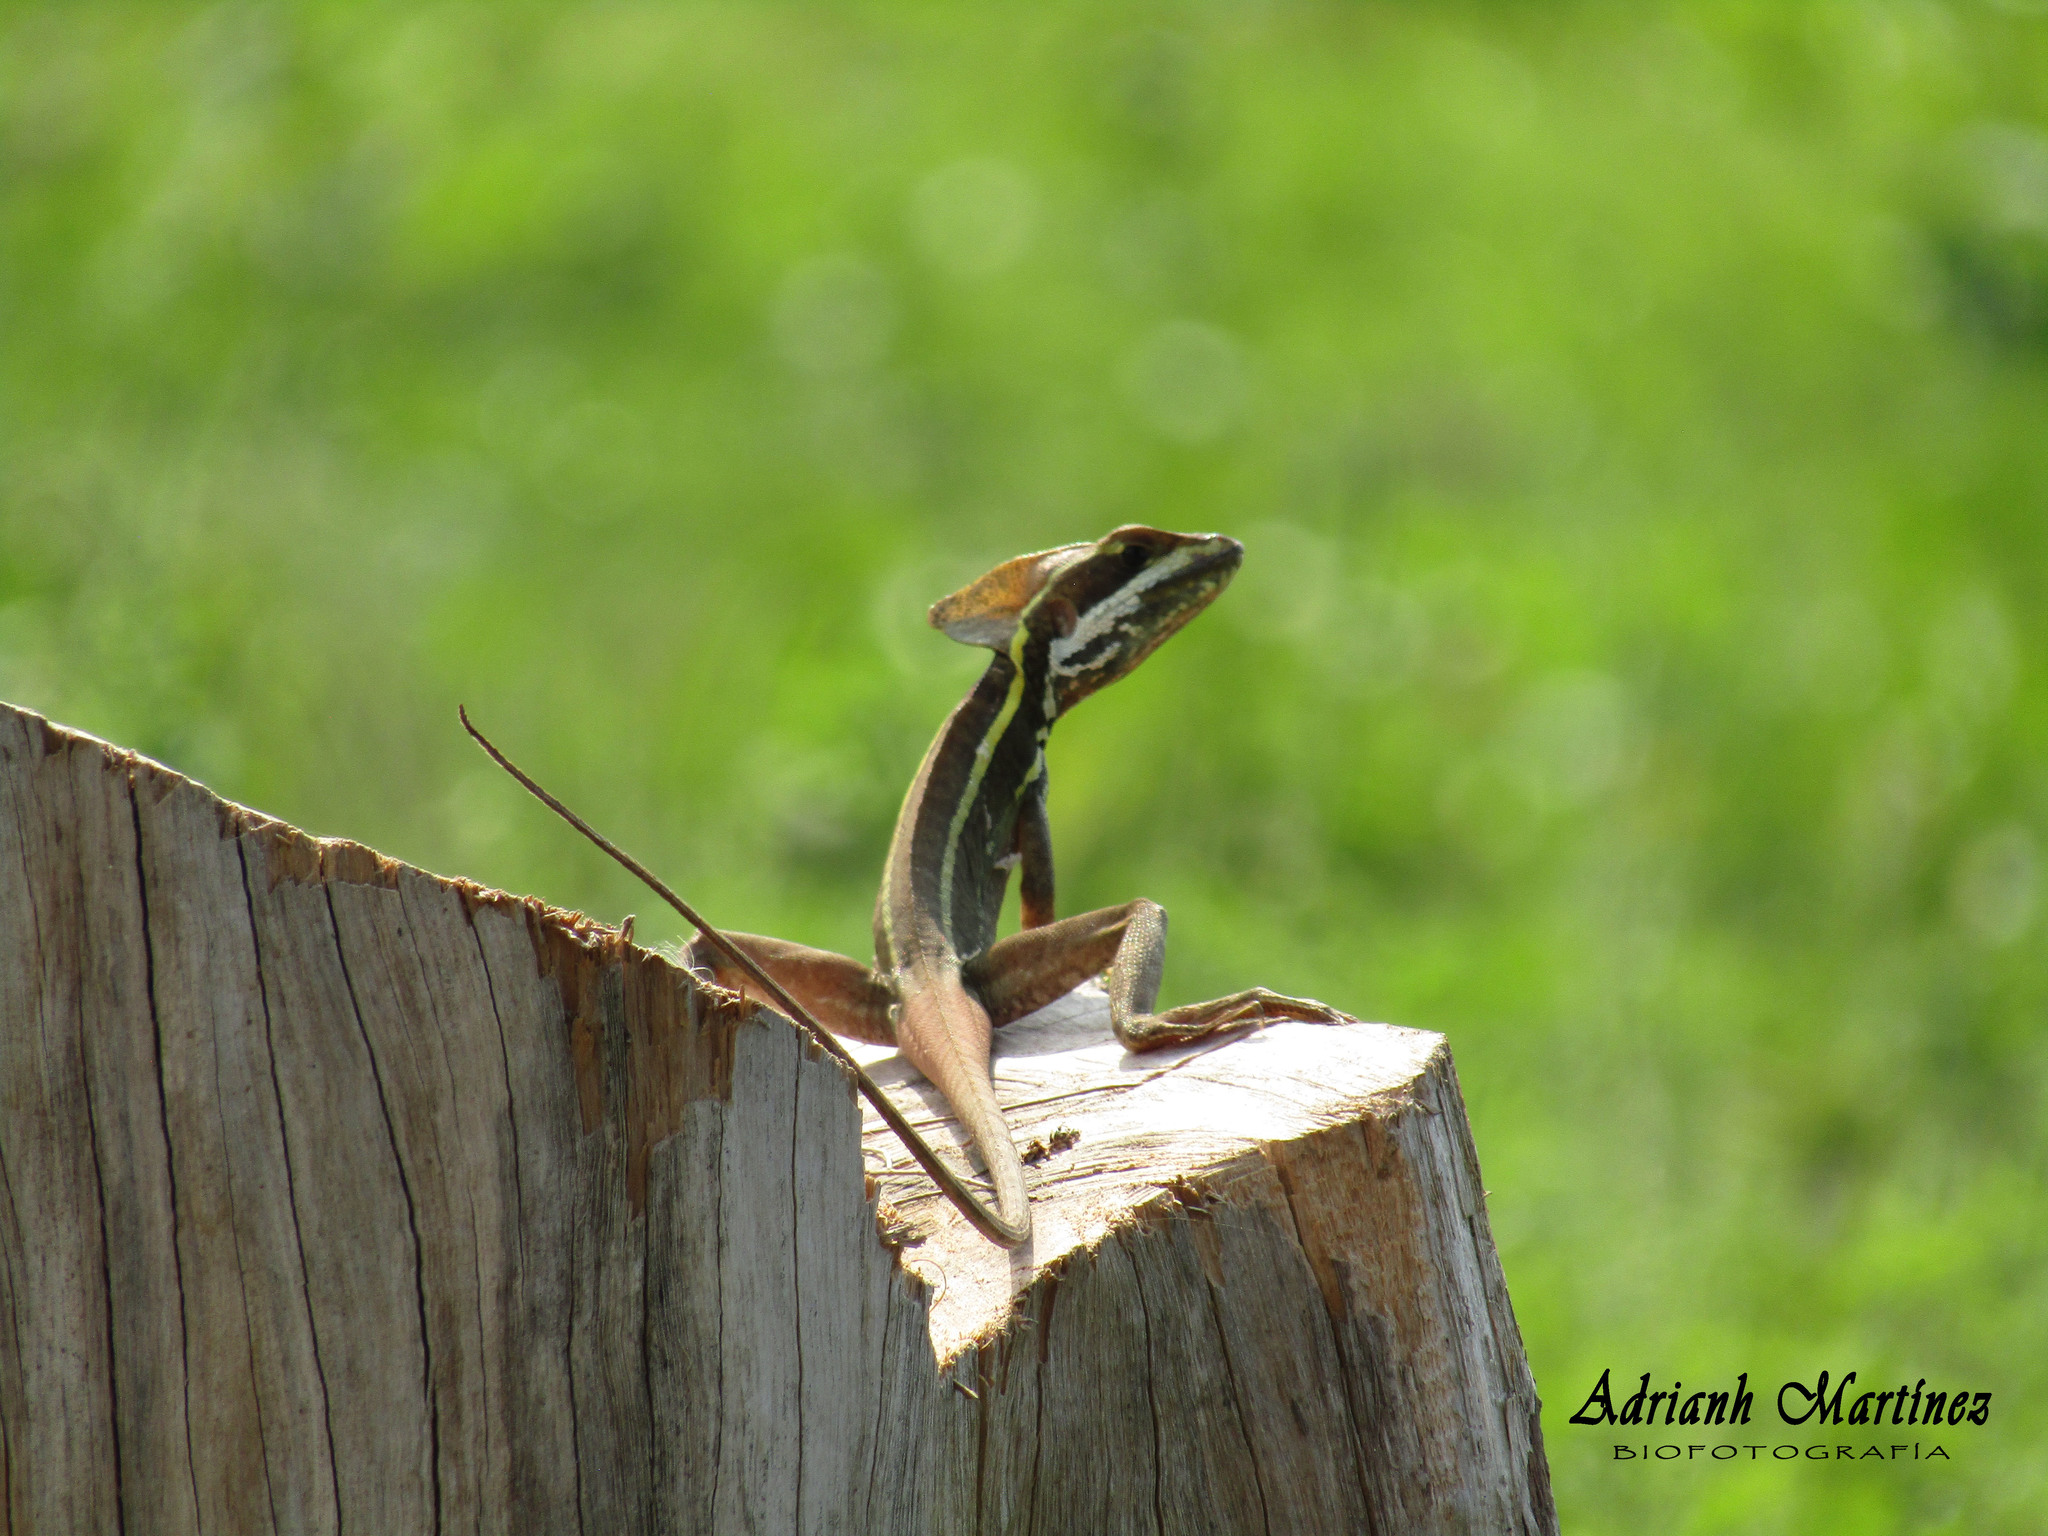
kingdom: Animalia
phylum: Chordata
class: Squamata
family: Corytophanidae
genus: Basiliscus
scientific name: Basiliscus vittatus
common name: Brown basilisk
